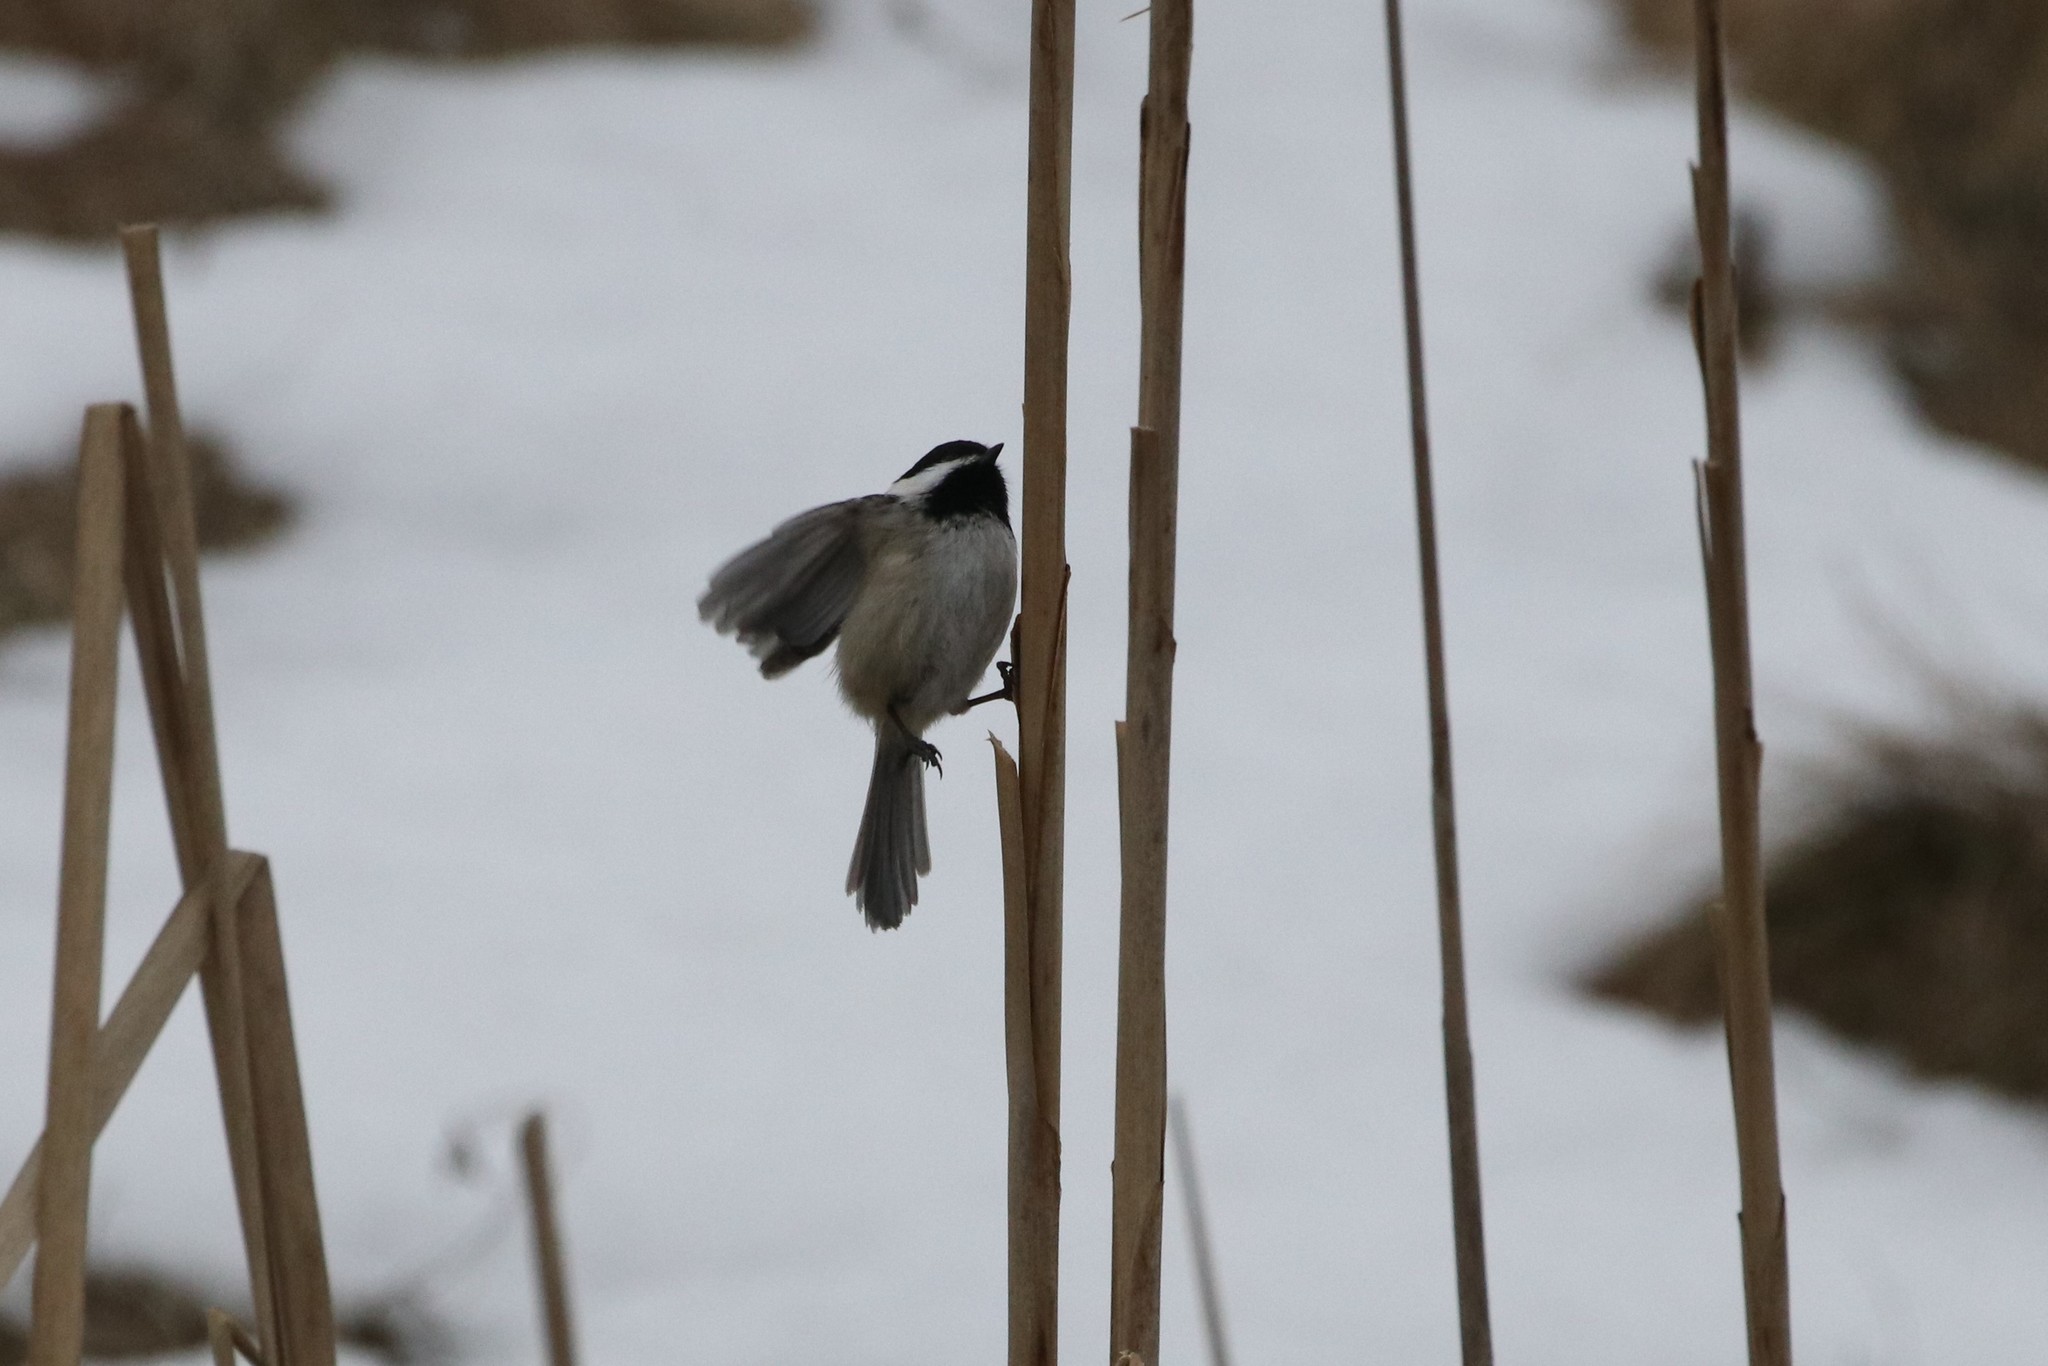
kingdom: Animalia
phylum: Chordata
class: Aves
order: Passeriformes
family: Paridae
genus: Poecile
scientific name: Poecile atricapillus
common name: Black-capped chickadee
